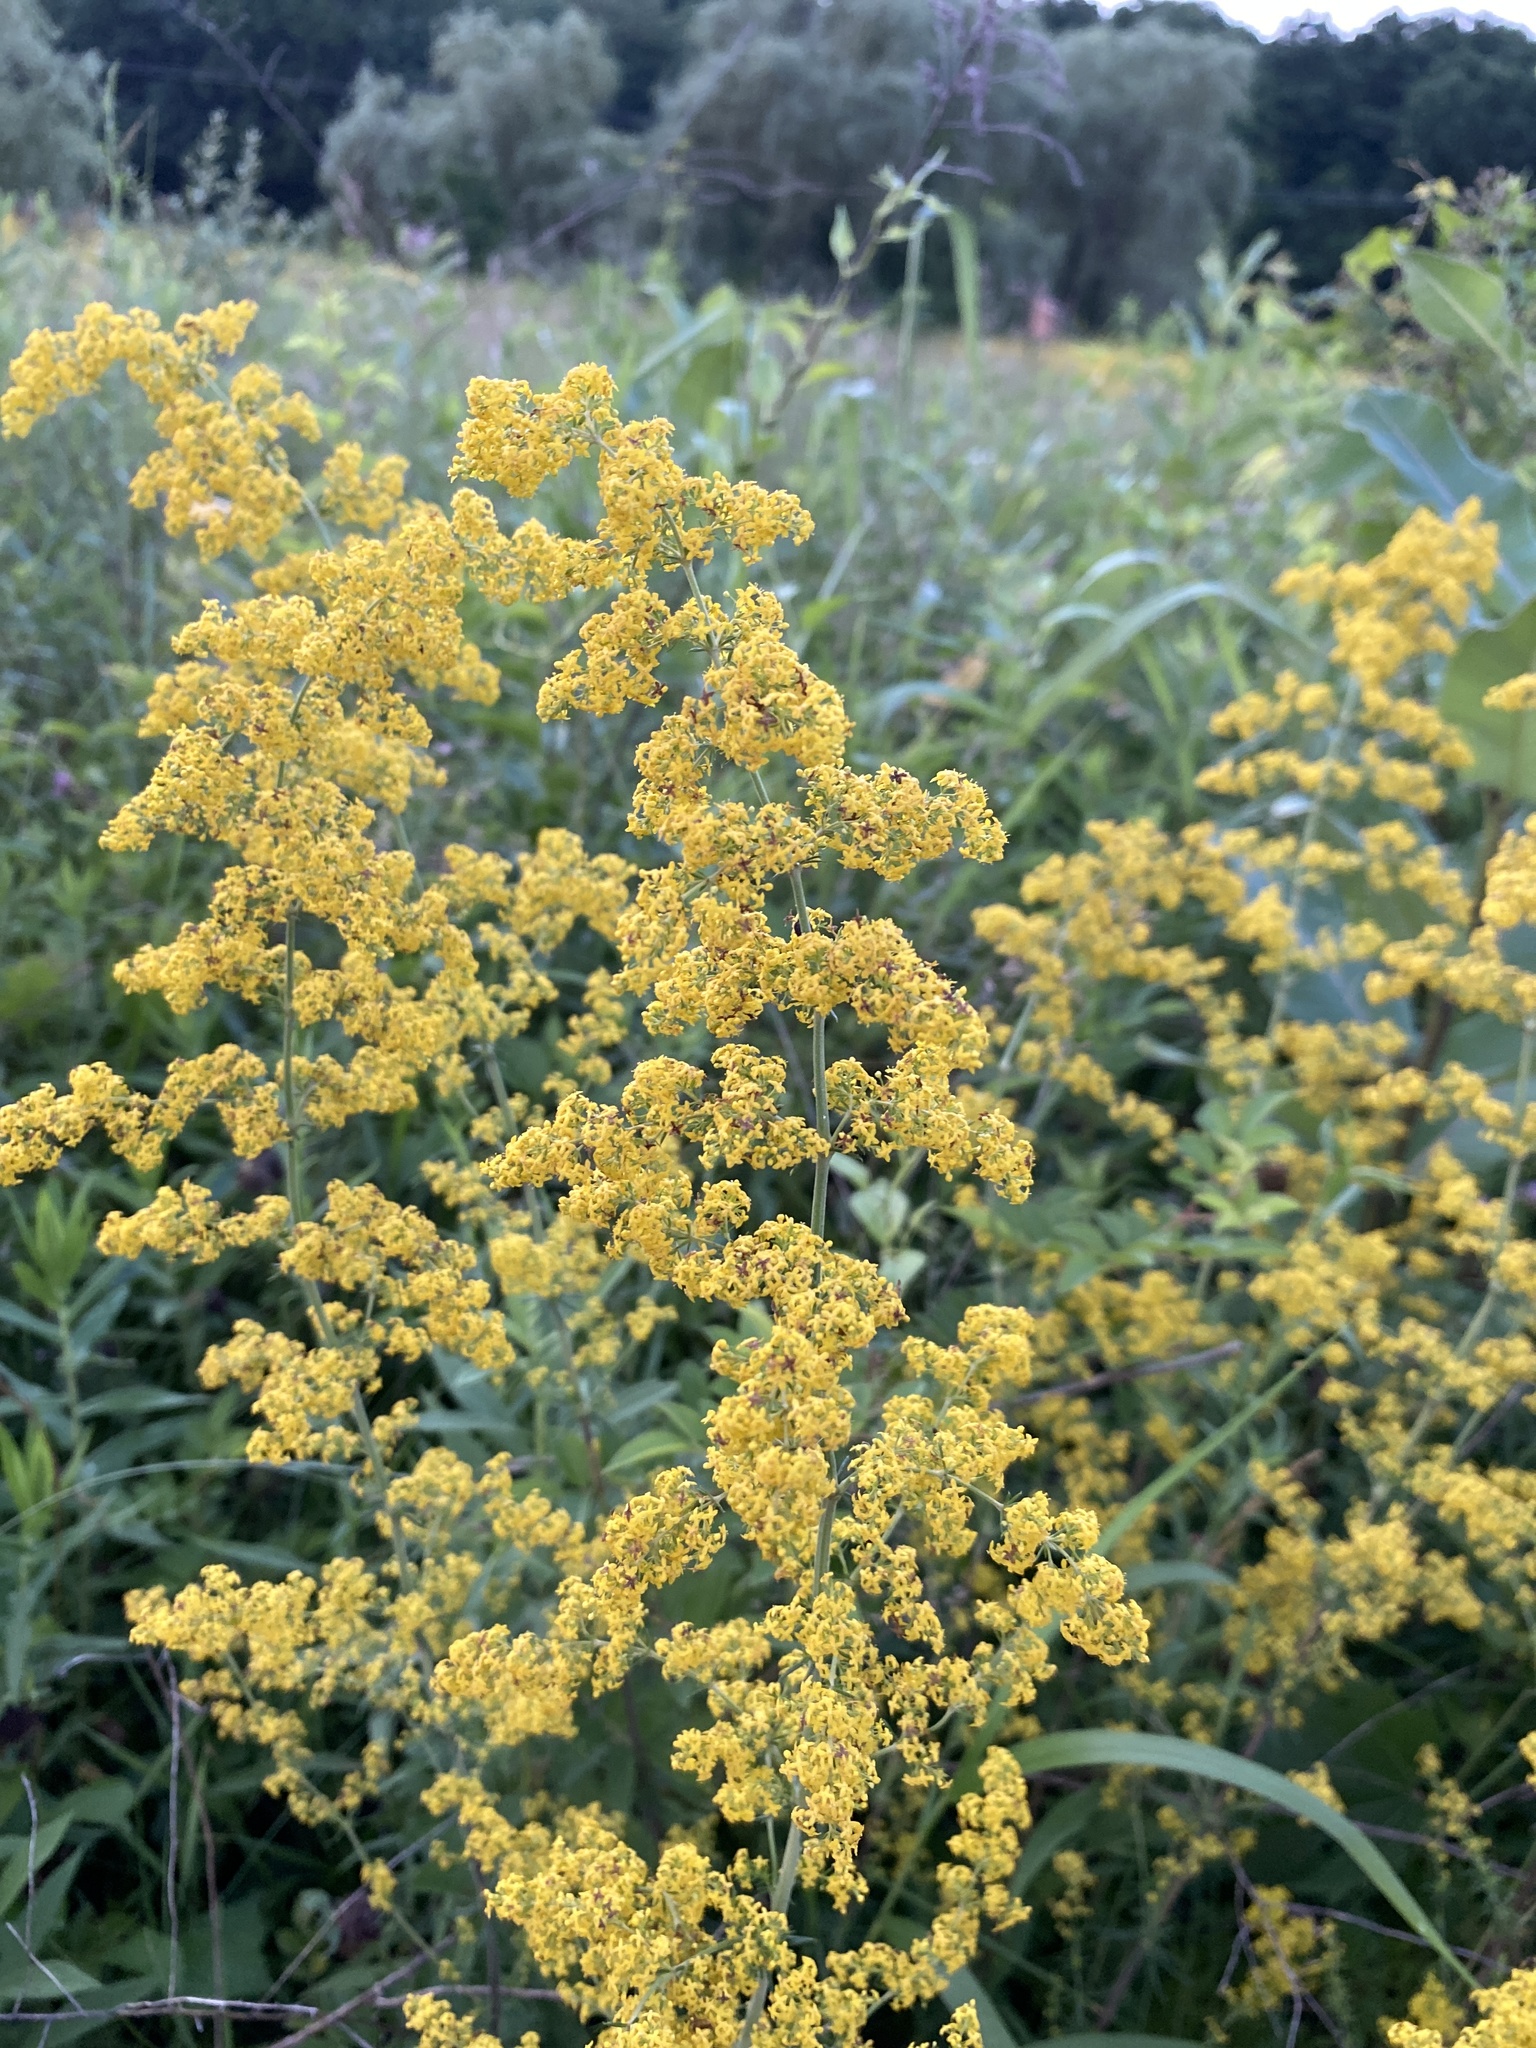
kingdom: Plantae
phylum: Tracheophyta
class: Magnoliopsida
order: Gentianales
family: Rubiaceae
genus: Galium
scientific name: Galium verum
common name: Lady's bedstraw
